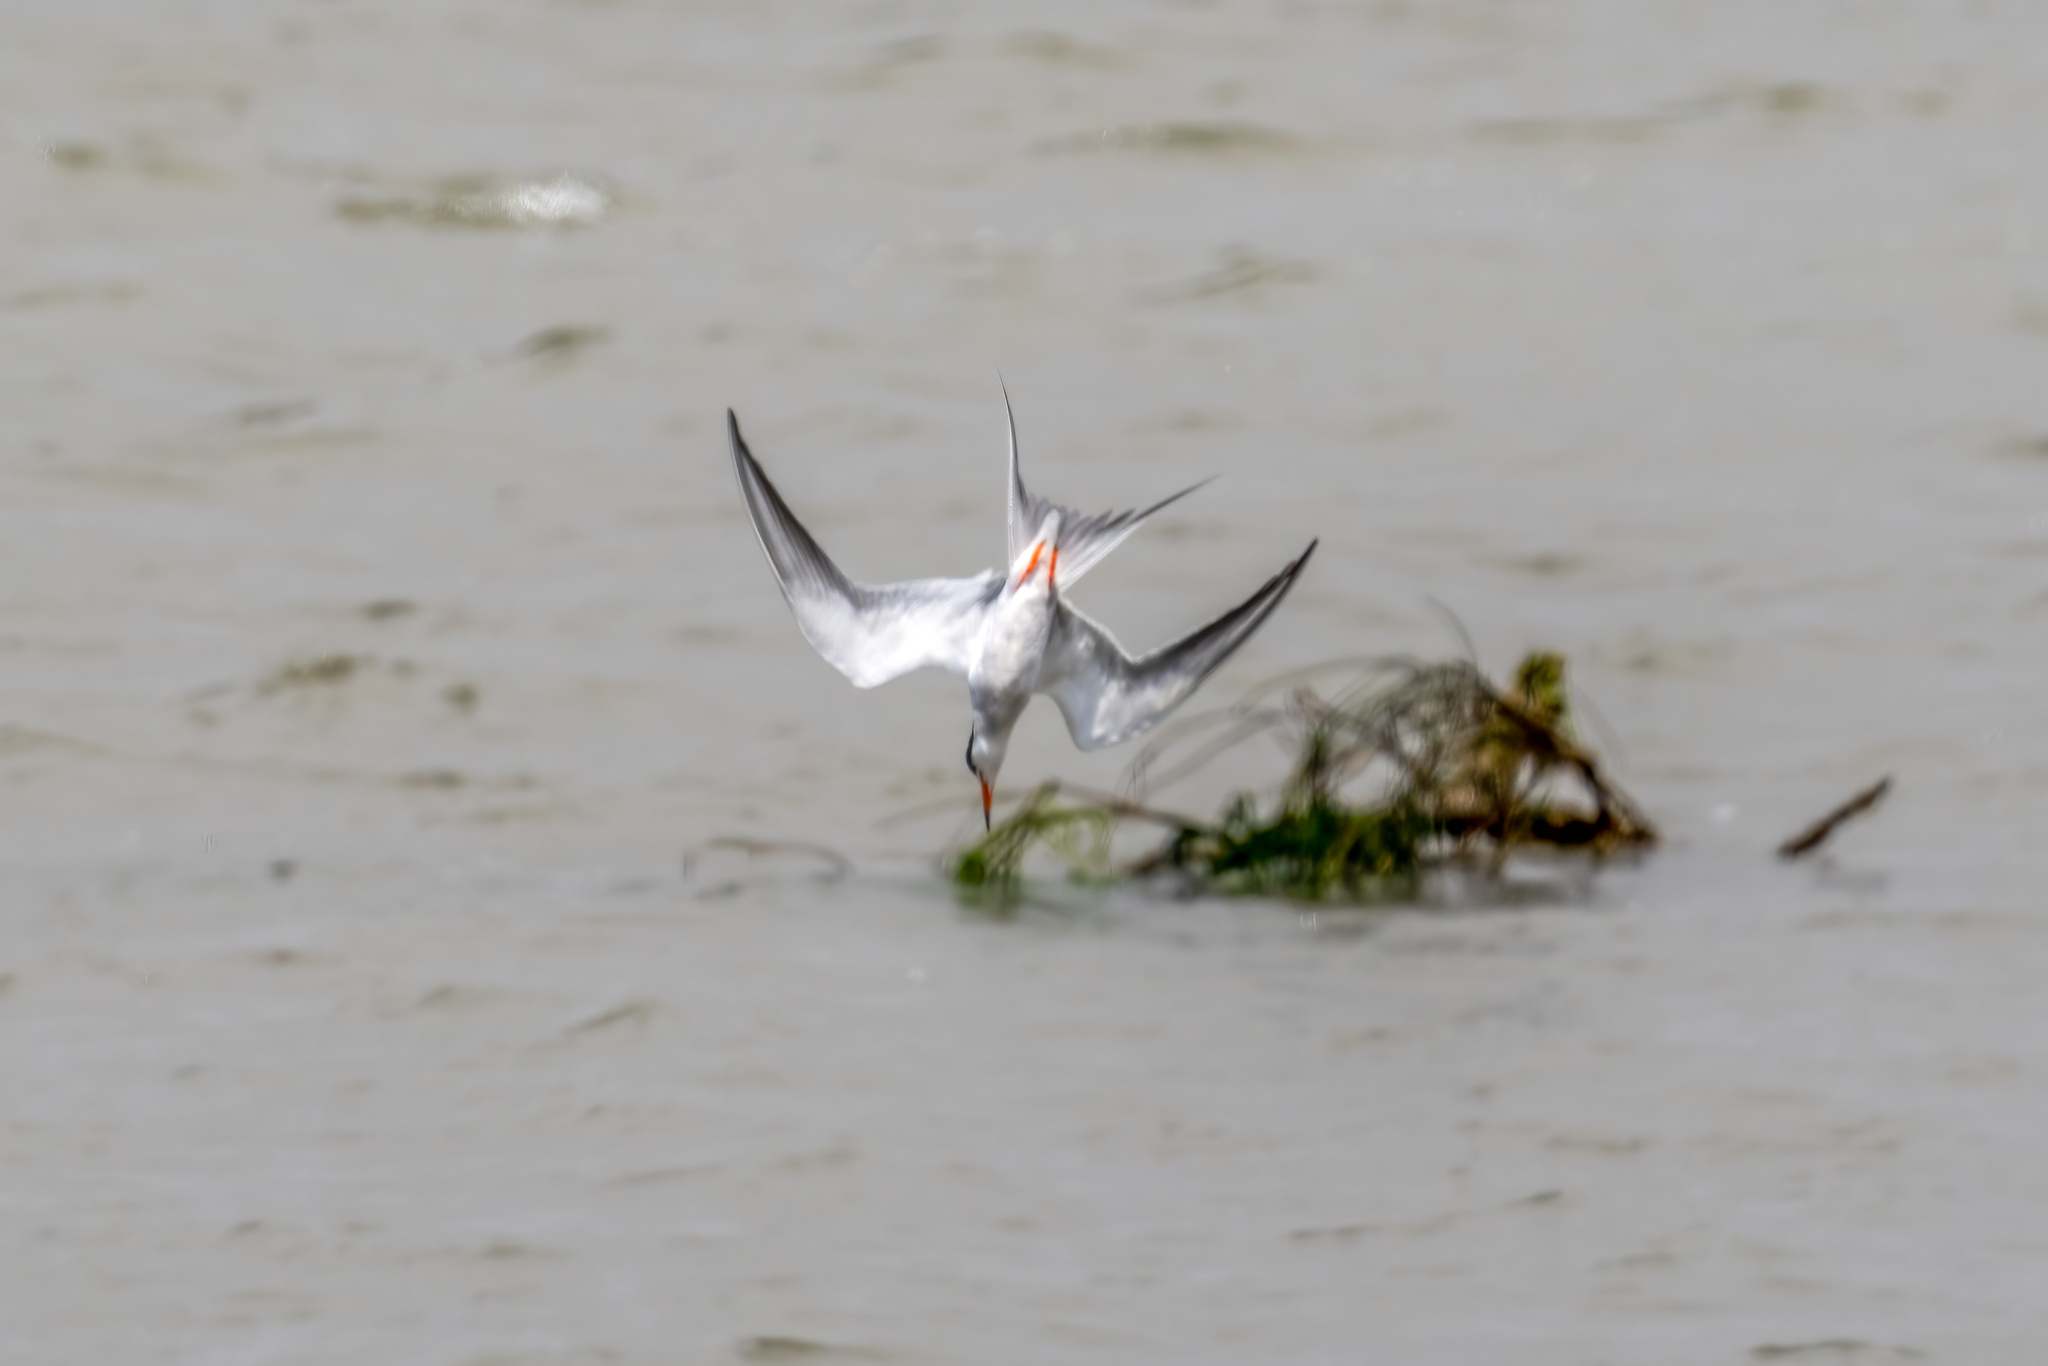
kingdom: Animalia
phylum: Chordata
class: Aves
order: Charadriiformes
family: Laridae
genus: Sterna
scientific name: Sterna forsteri
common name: Forster's tern
